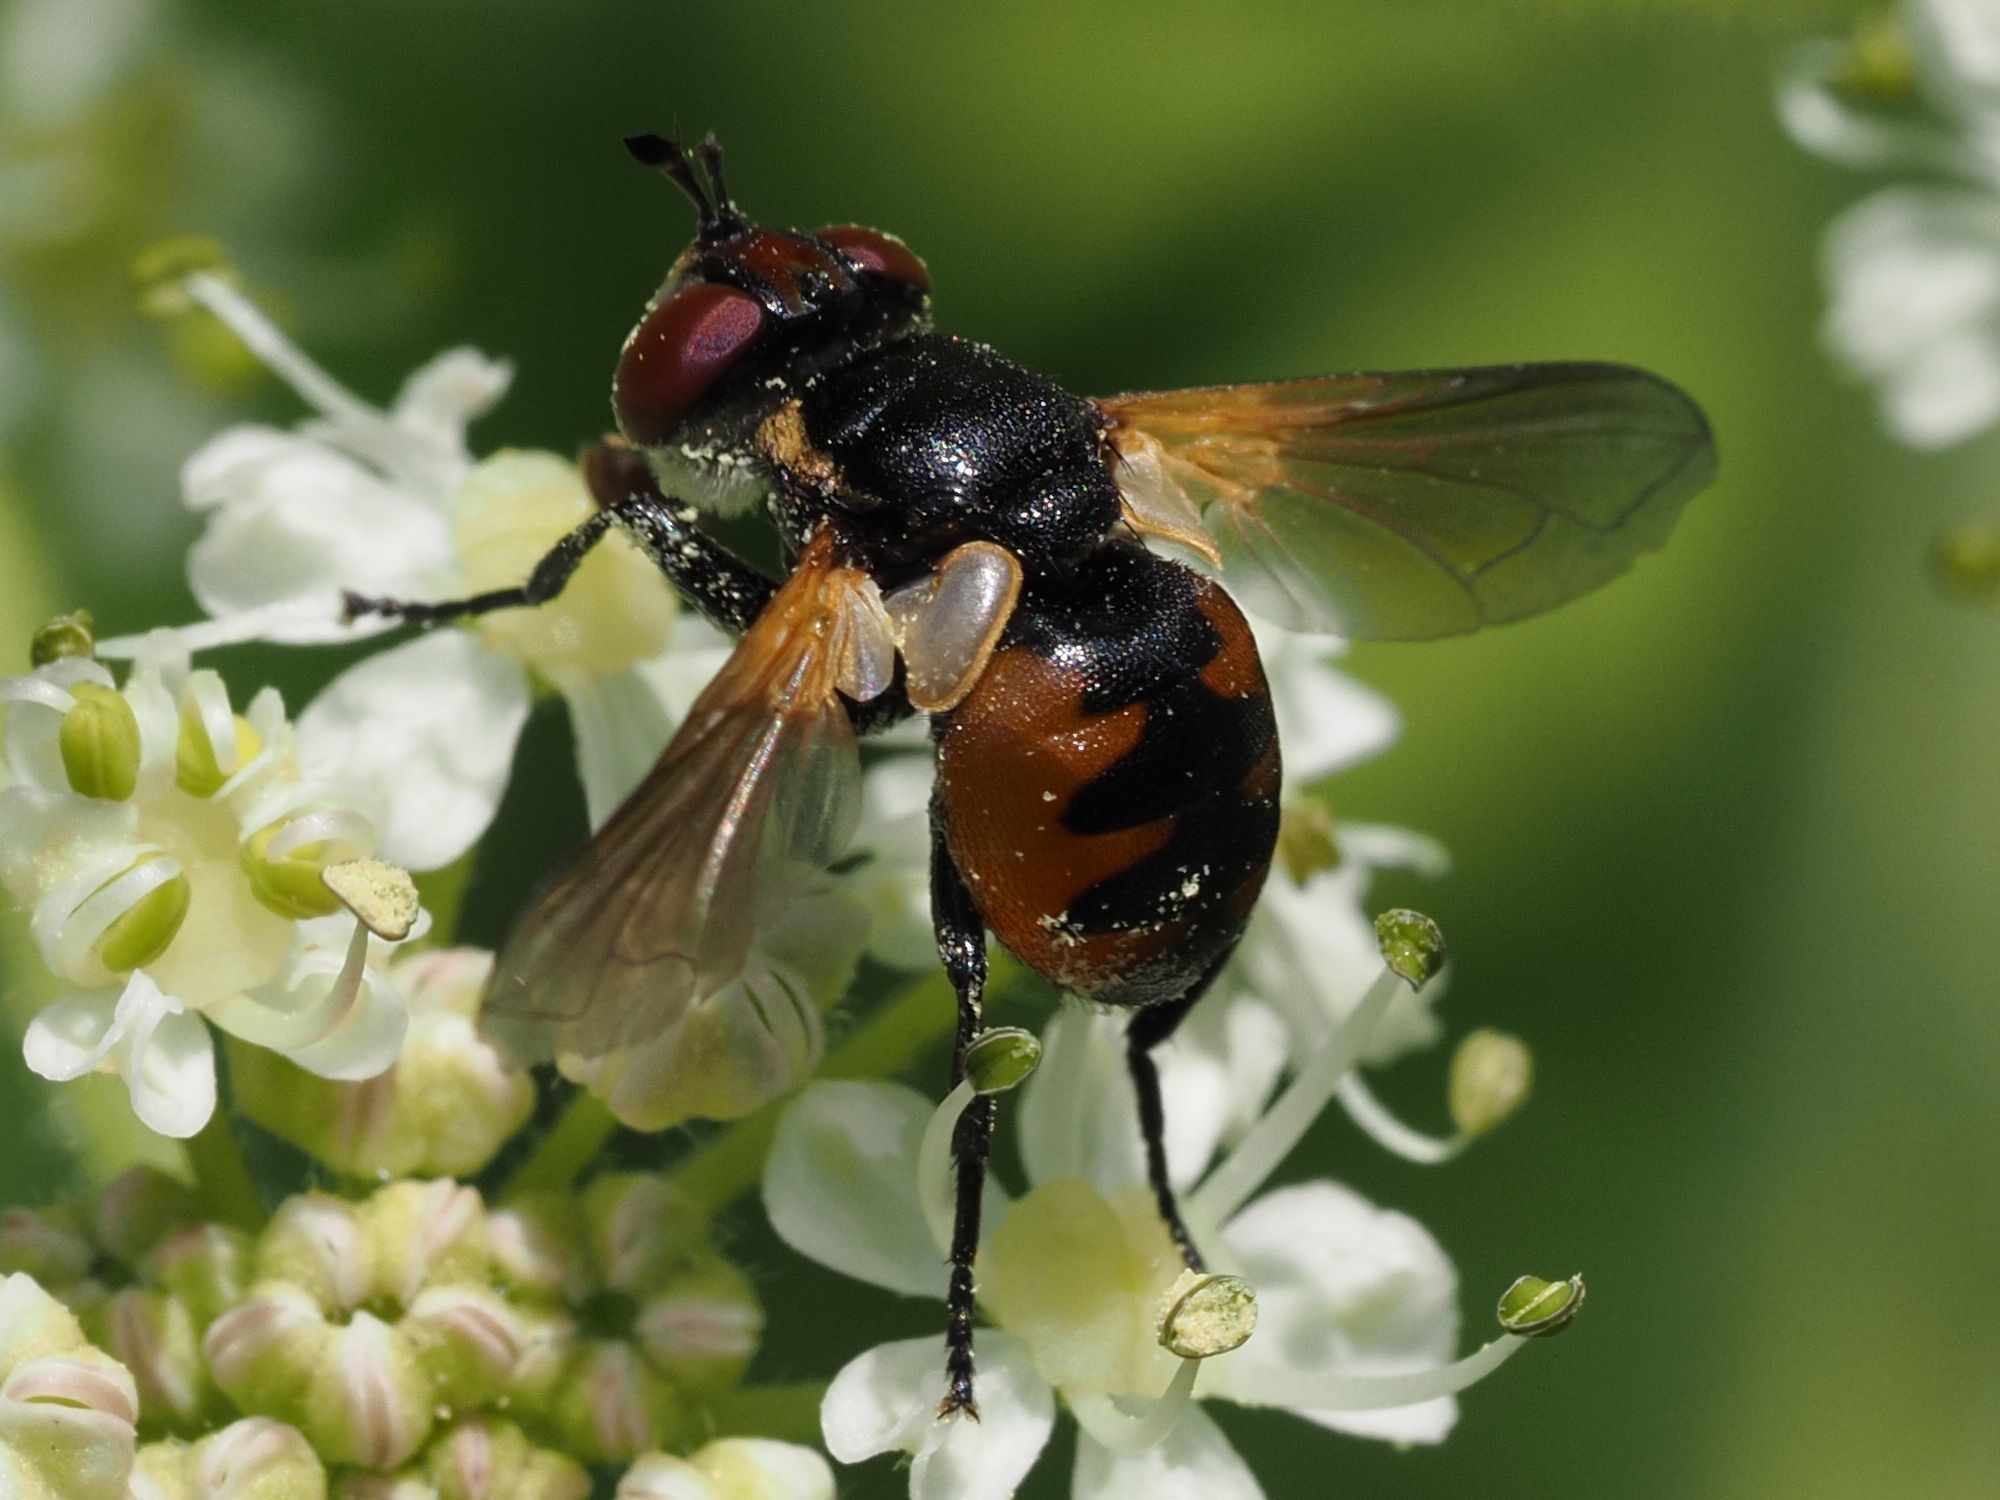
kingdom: Animalia
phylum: Arthropoda
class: Insecta
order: Diptera
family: Tachinidae
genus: Gymnosoma
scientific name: Gymnosoma nitens
